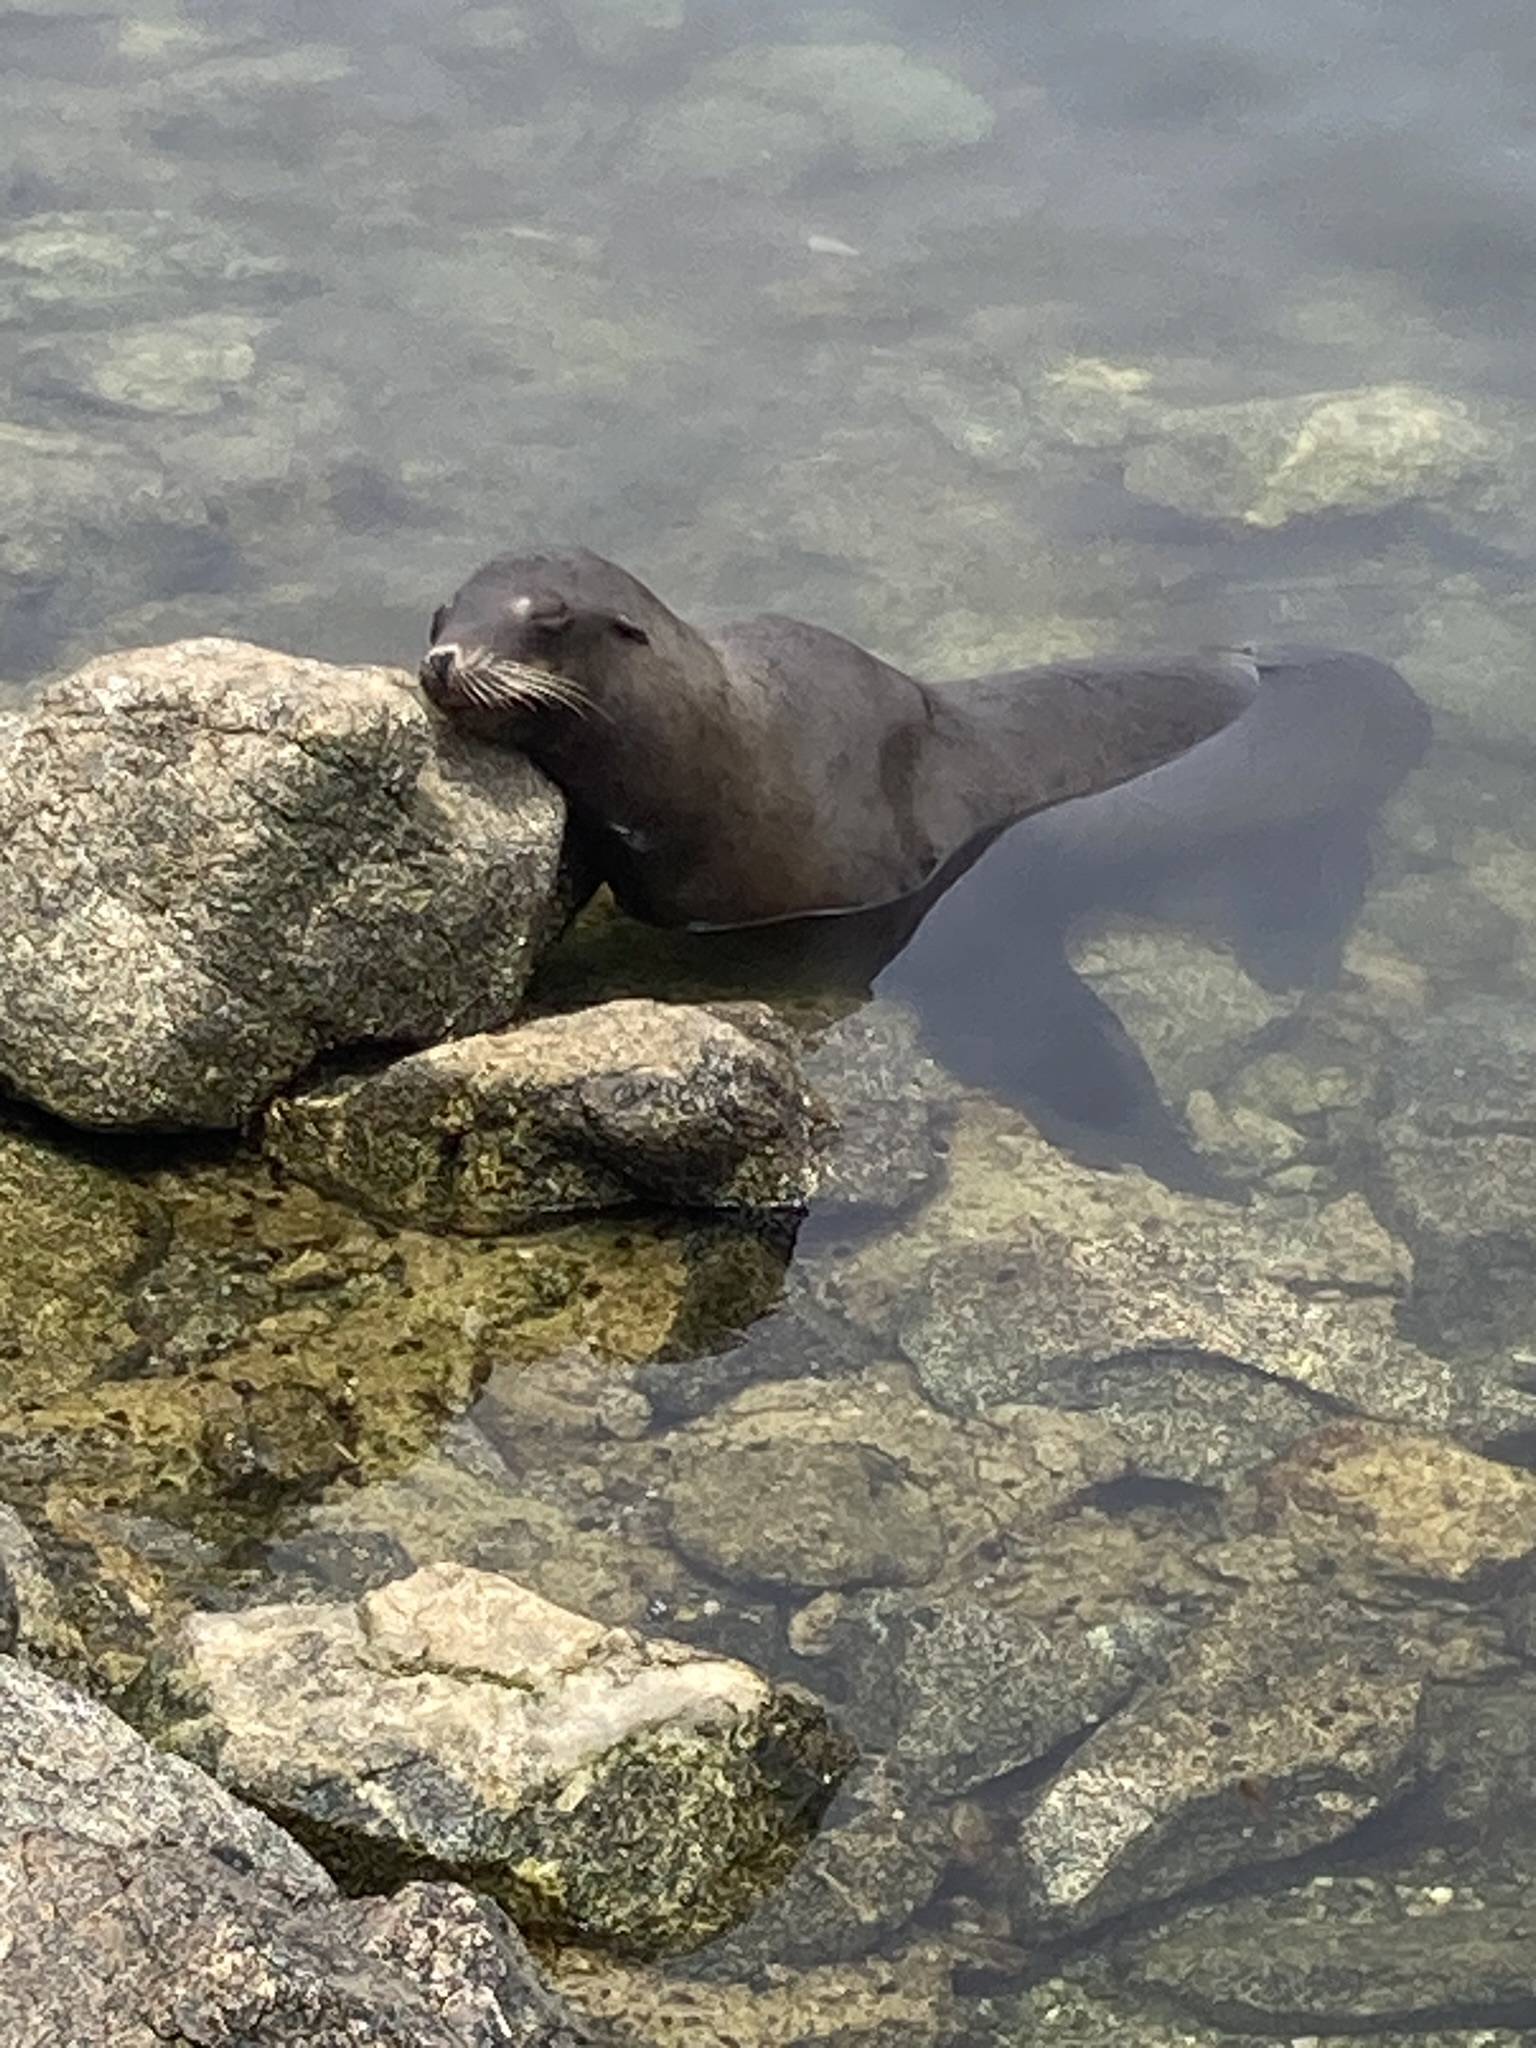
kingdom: Animalia
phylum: Chordata
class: Mammalia
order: Carnivora
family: Otariidae
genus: Zalophus
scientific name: Zalophus californianus
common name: California sea lion
